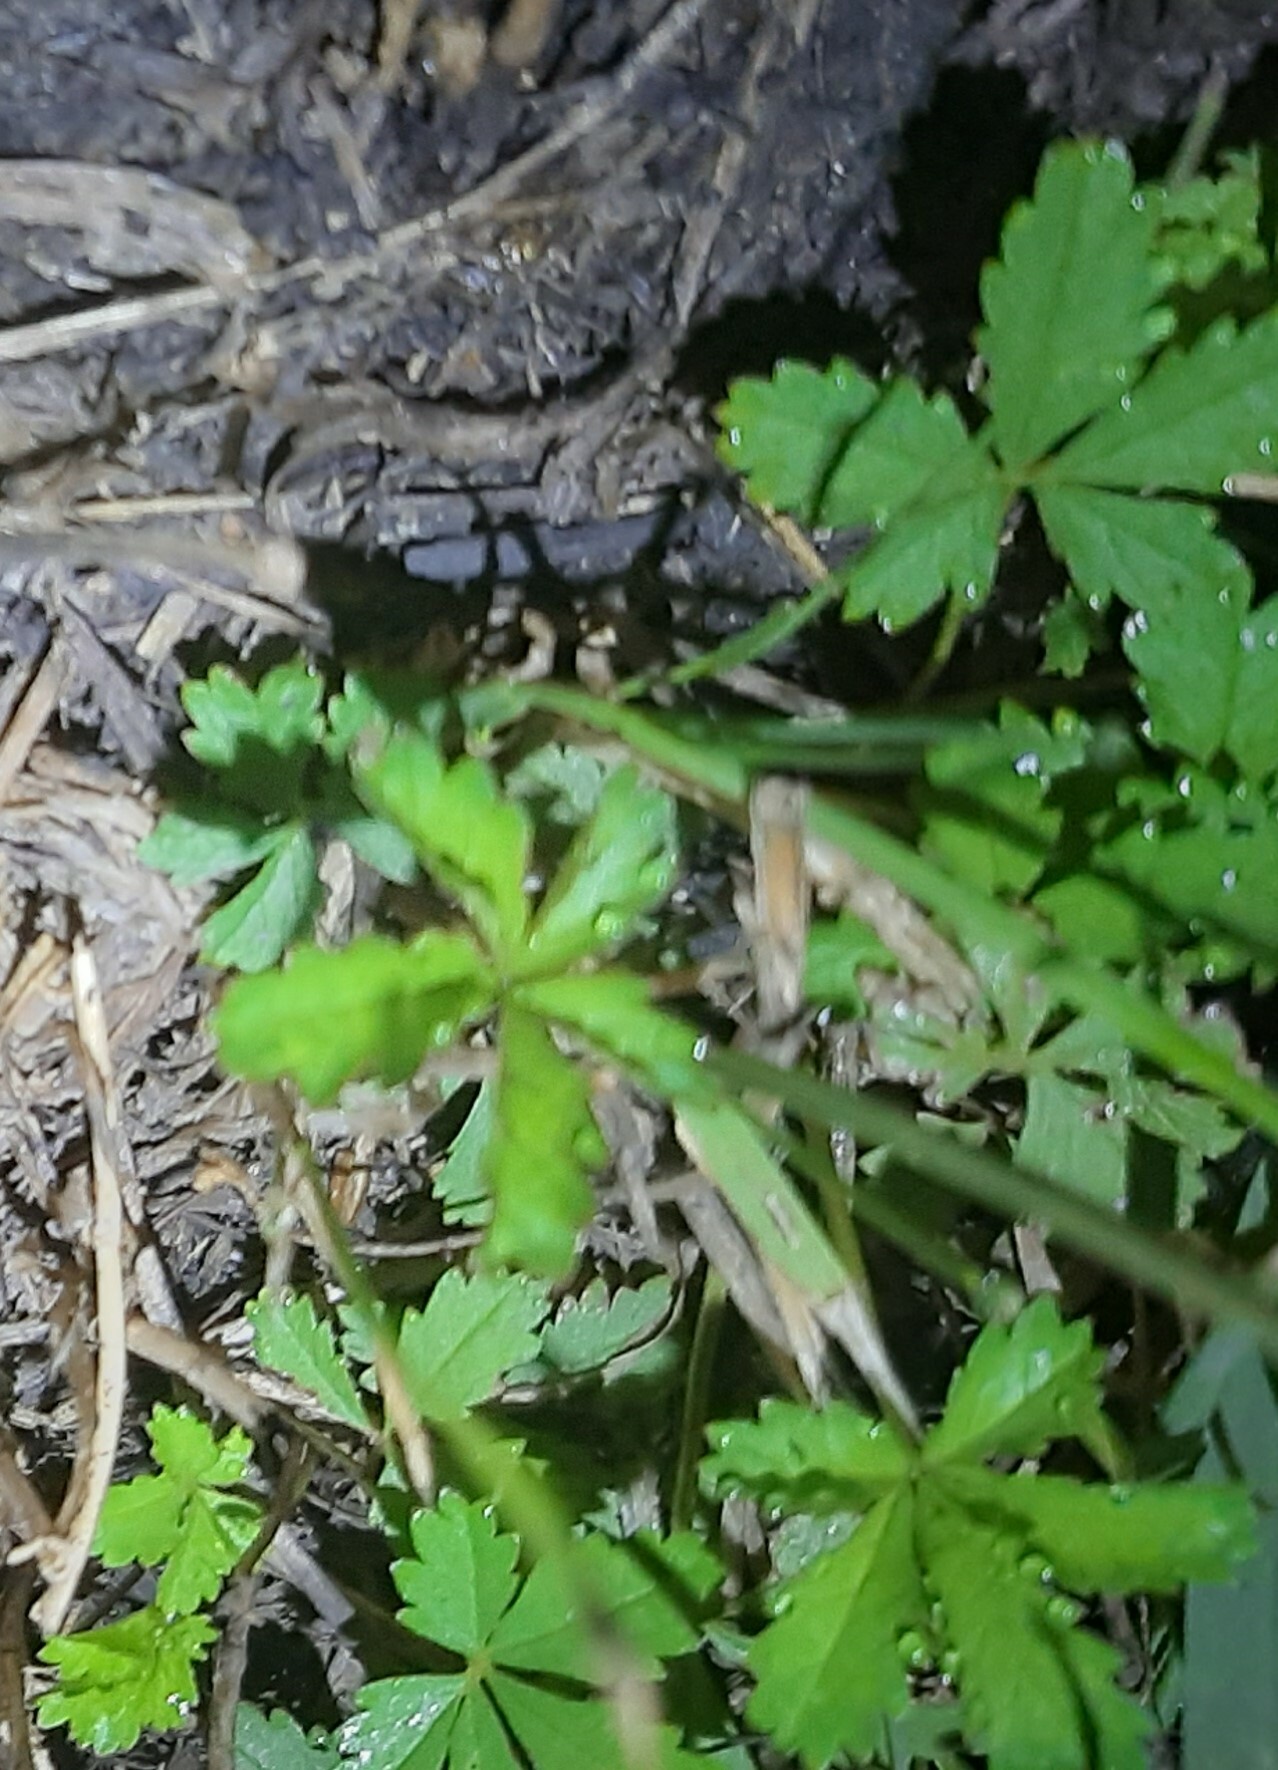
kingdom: Plantae
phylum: Tracheophyta
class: Magnoliopsida
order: Rosales
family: Rosaceae
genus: Potentilla
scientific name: Potentilla reptans
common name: Creeping cinquefoil
